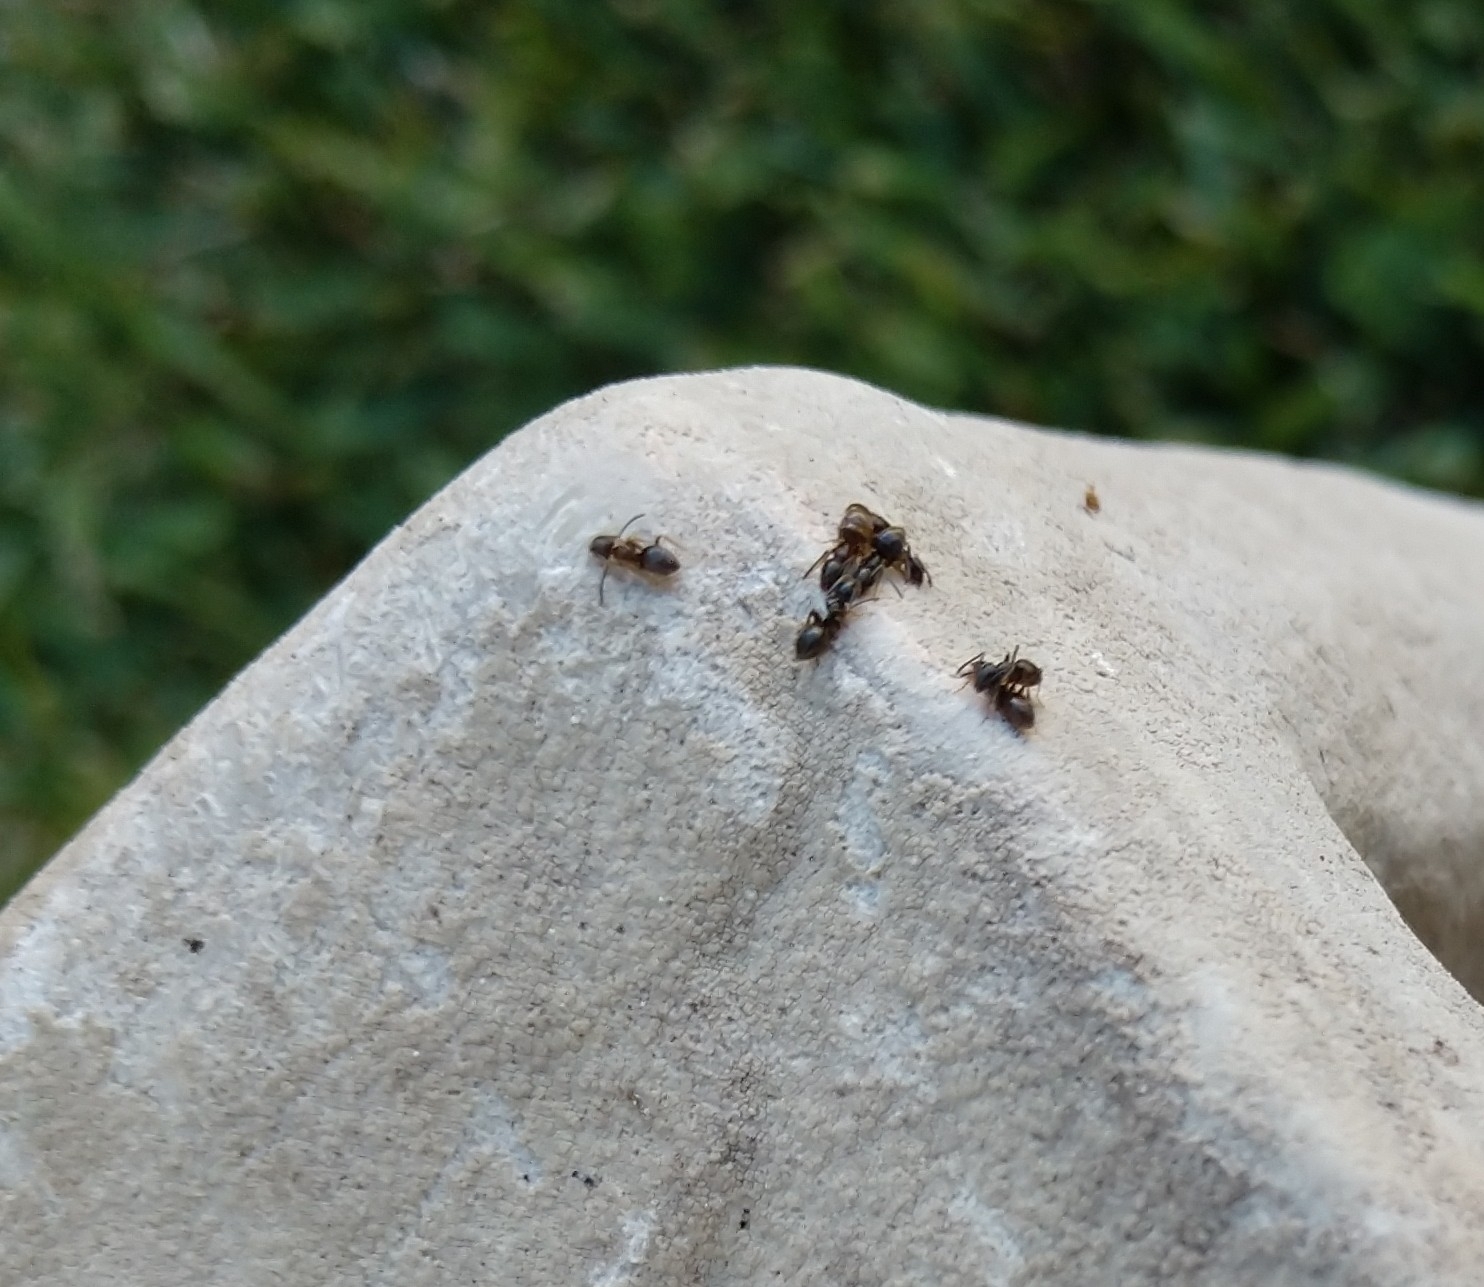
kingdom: Animalia
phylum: Arthropoda
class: Insecta
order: Hymenoptera
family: Formicidae
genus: Tapinoma
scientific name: Tapinoma sessile
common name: Odorous house ant
